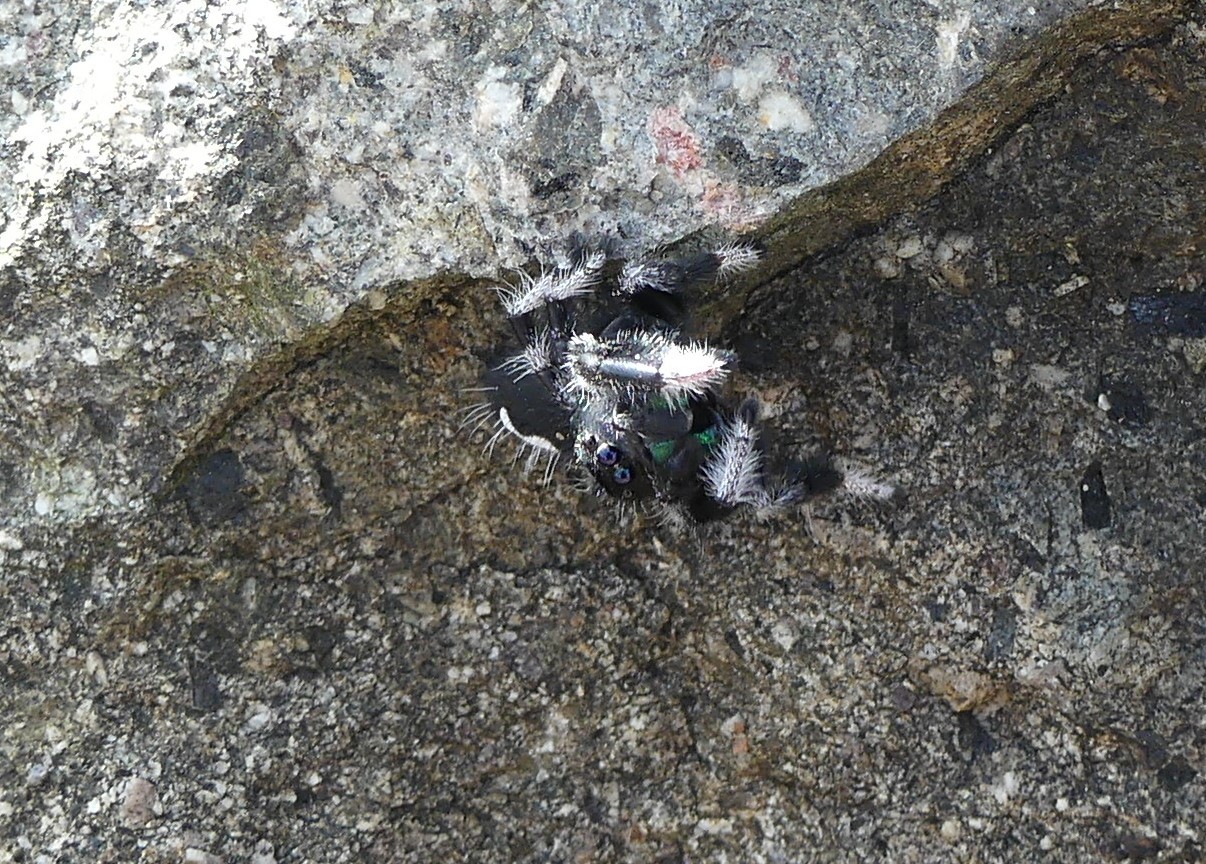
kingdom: Animalia
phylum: Arthropoda
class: Arachnida
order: Araneae
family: Salticidae
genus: Phidippus
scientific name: Phidippus regius
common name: Regal jumper
